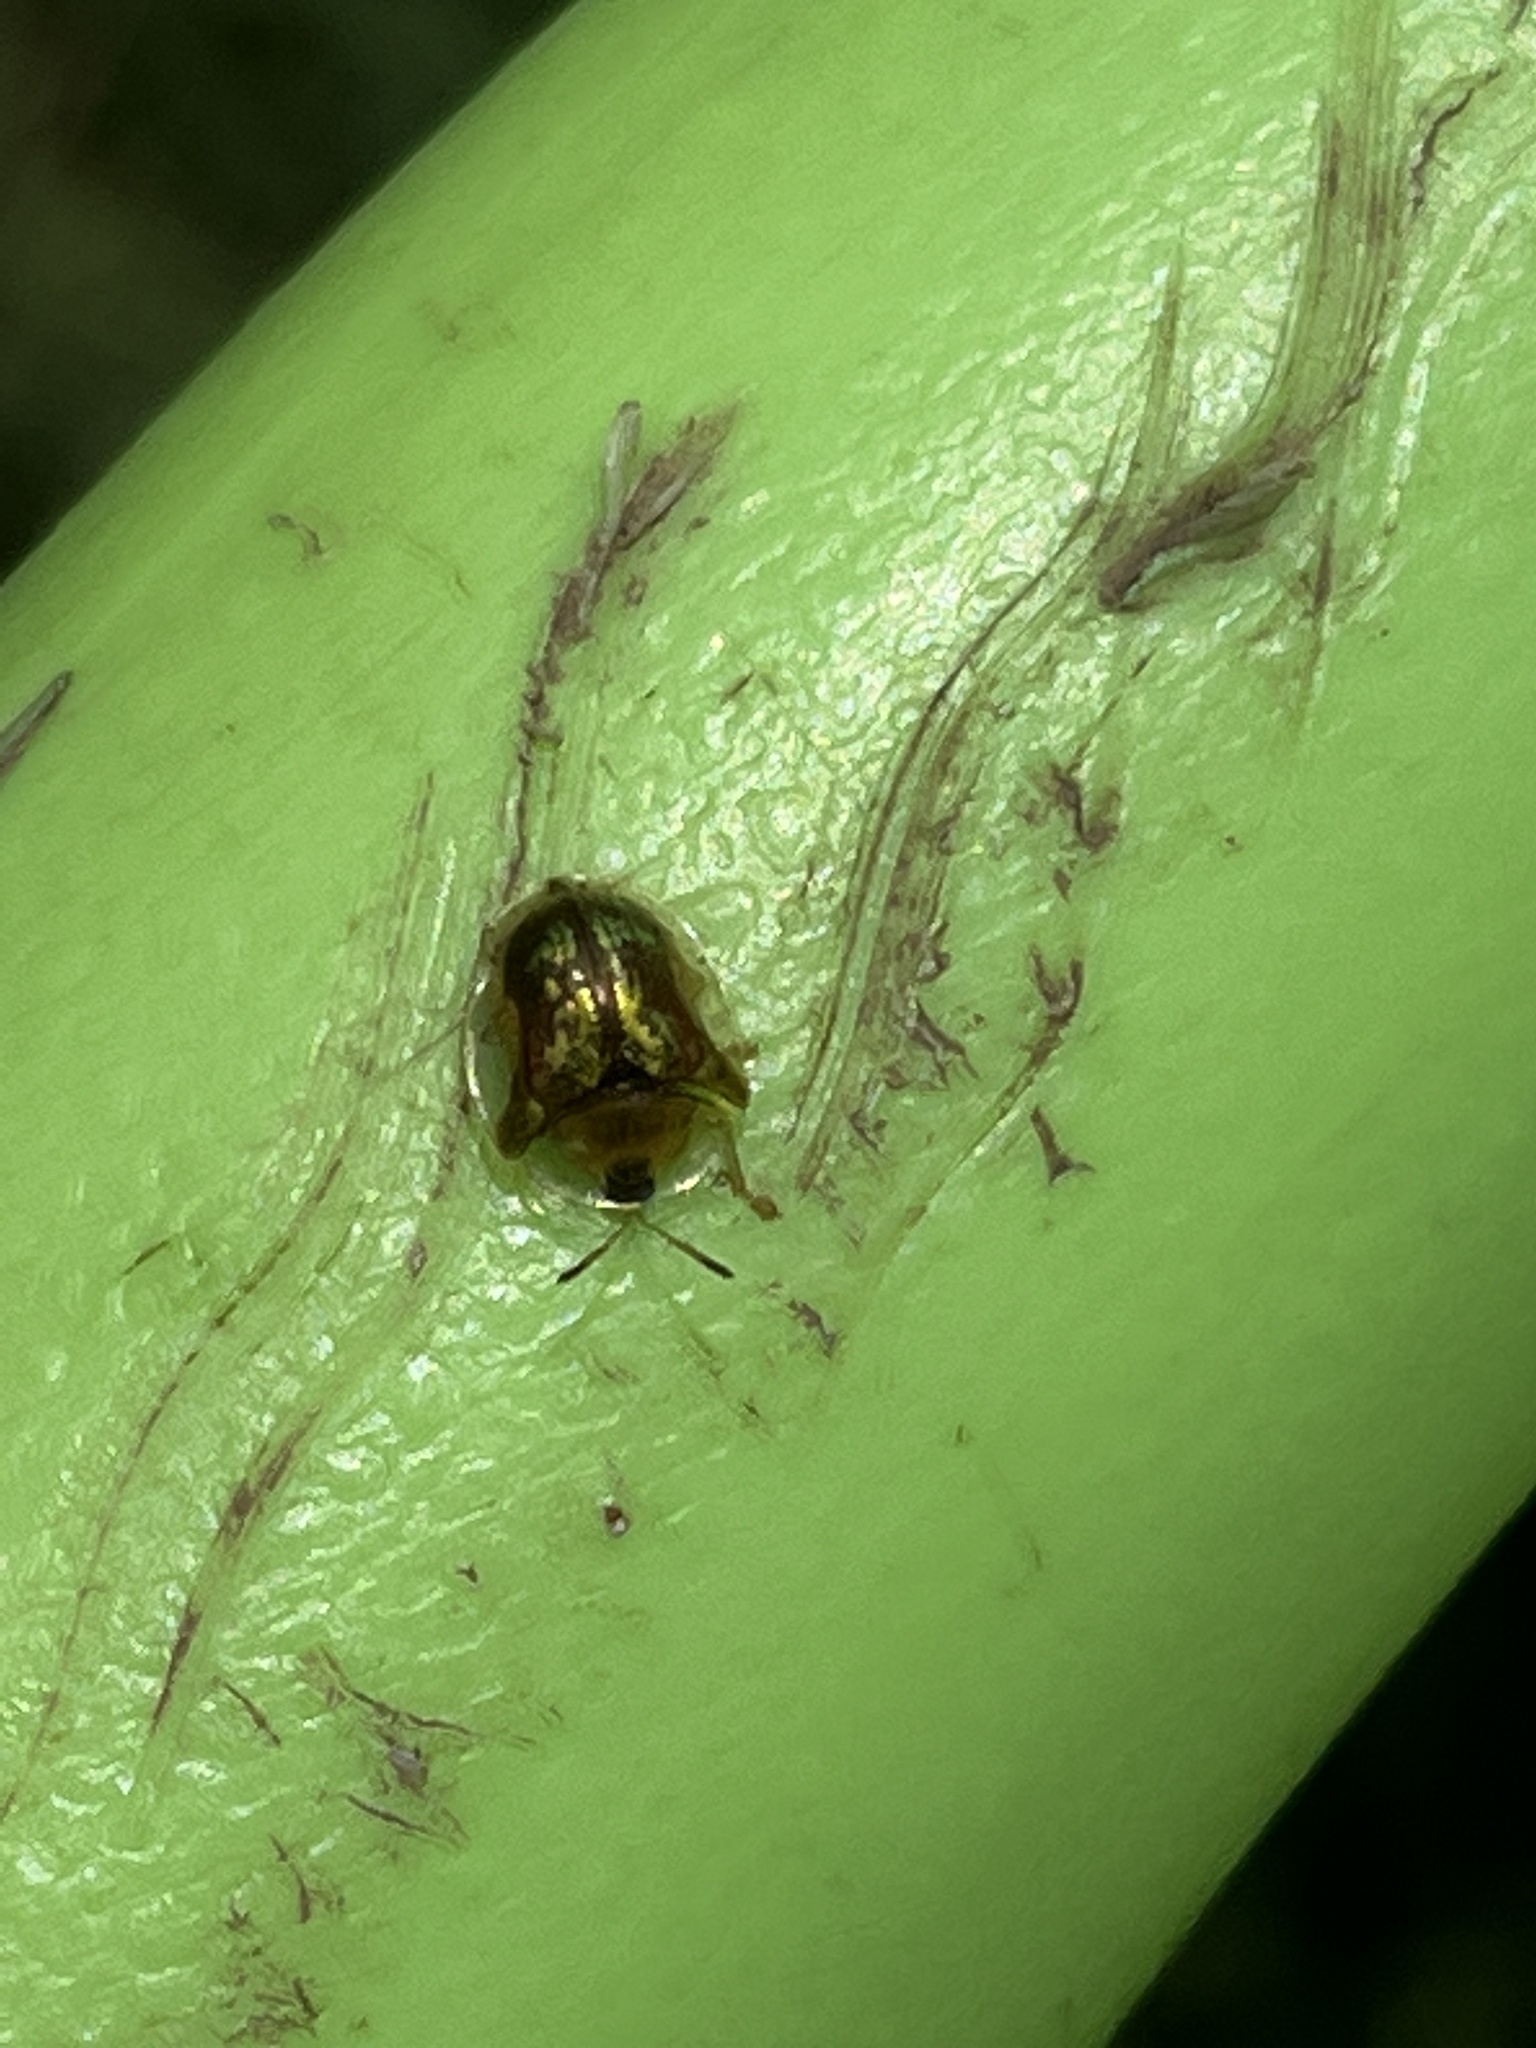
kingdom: Animalia
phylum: Arthropoda
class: Insecta
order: Coleoptera
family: Chrysomelidae
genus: Deloyala
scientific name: Deloyala guttata
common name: Mottled tortoise beetle
